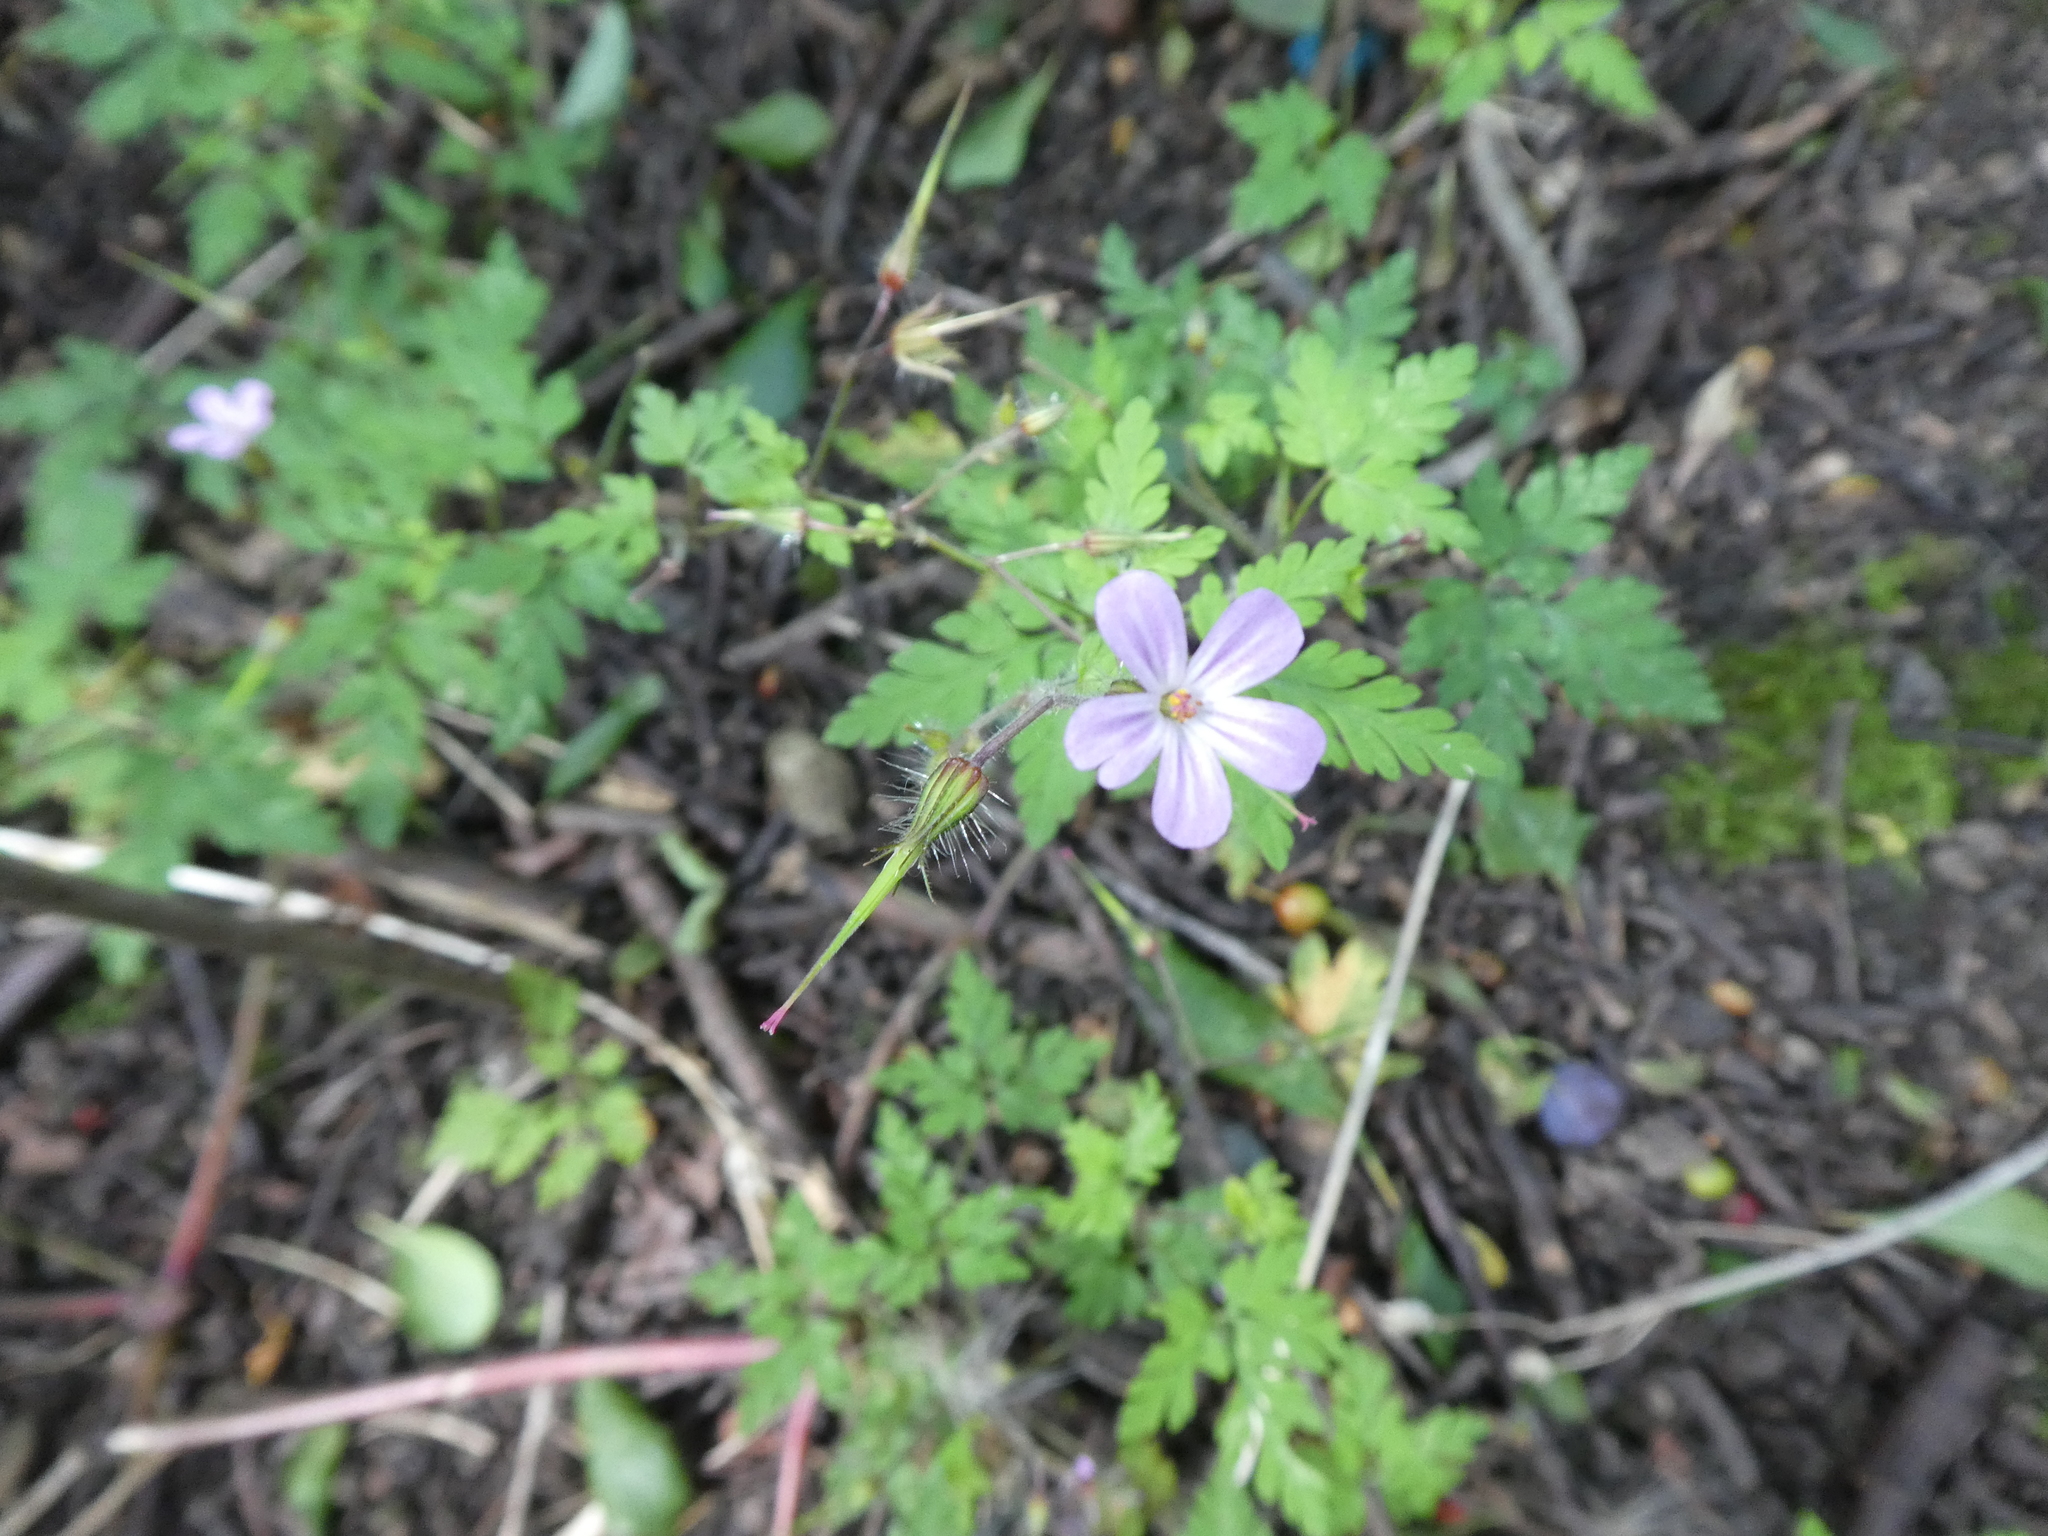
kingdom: Plantae
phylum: Tracheophyta
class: Magnoliopsida
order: Geraniales
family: Geraniaceae
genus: Geranium
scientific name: Geranium robertianum
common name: Herb-robert
